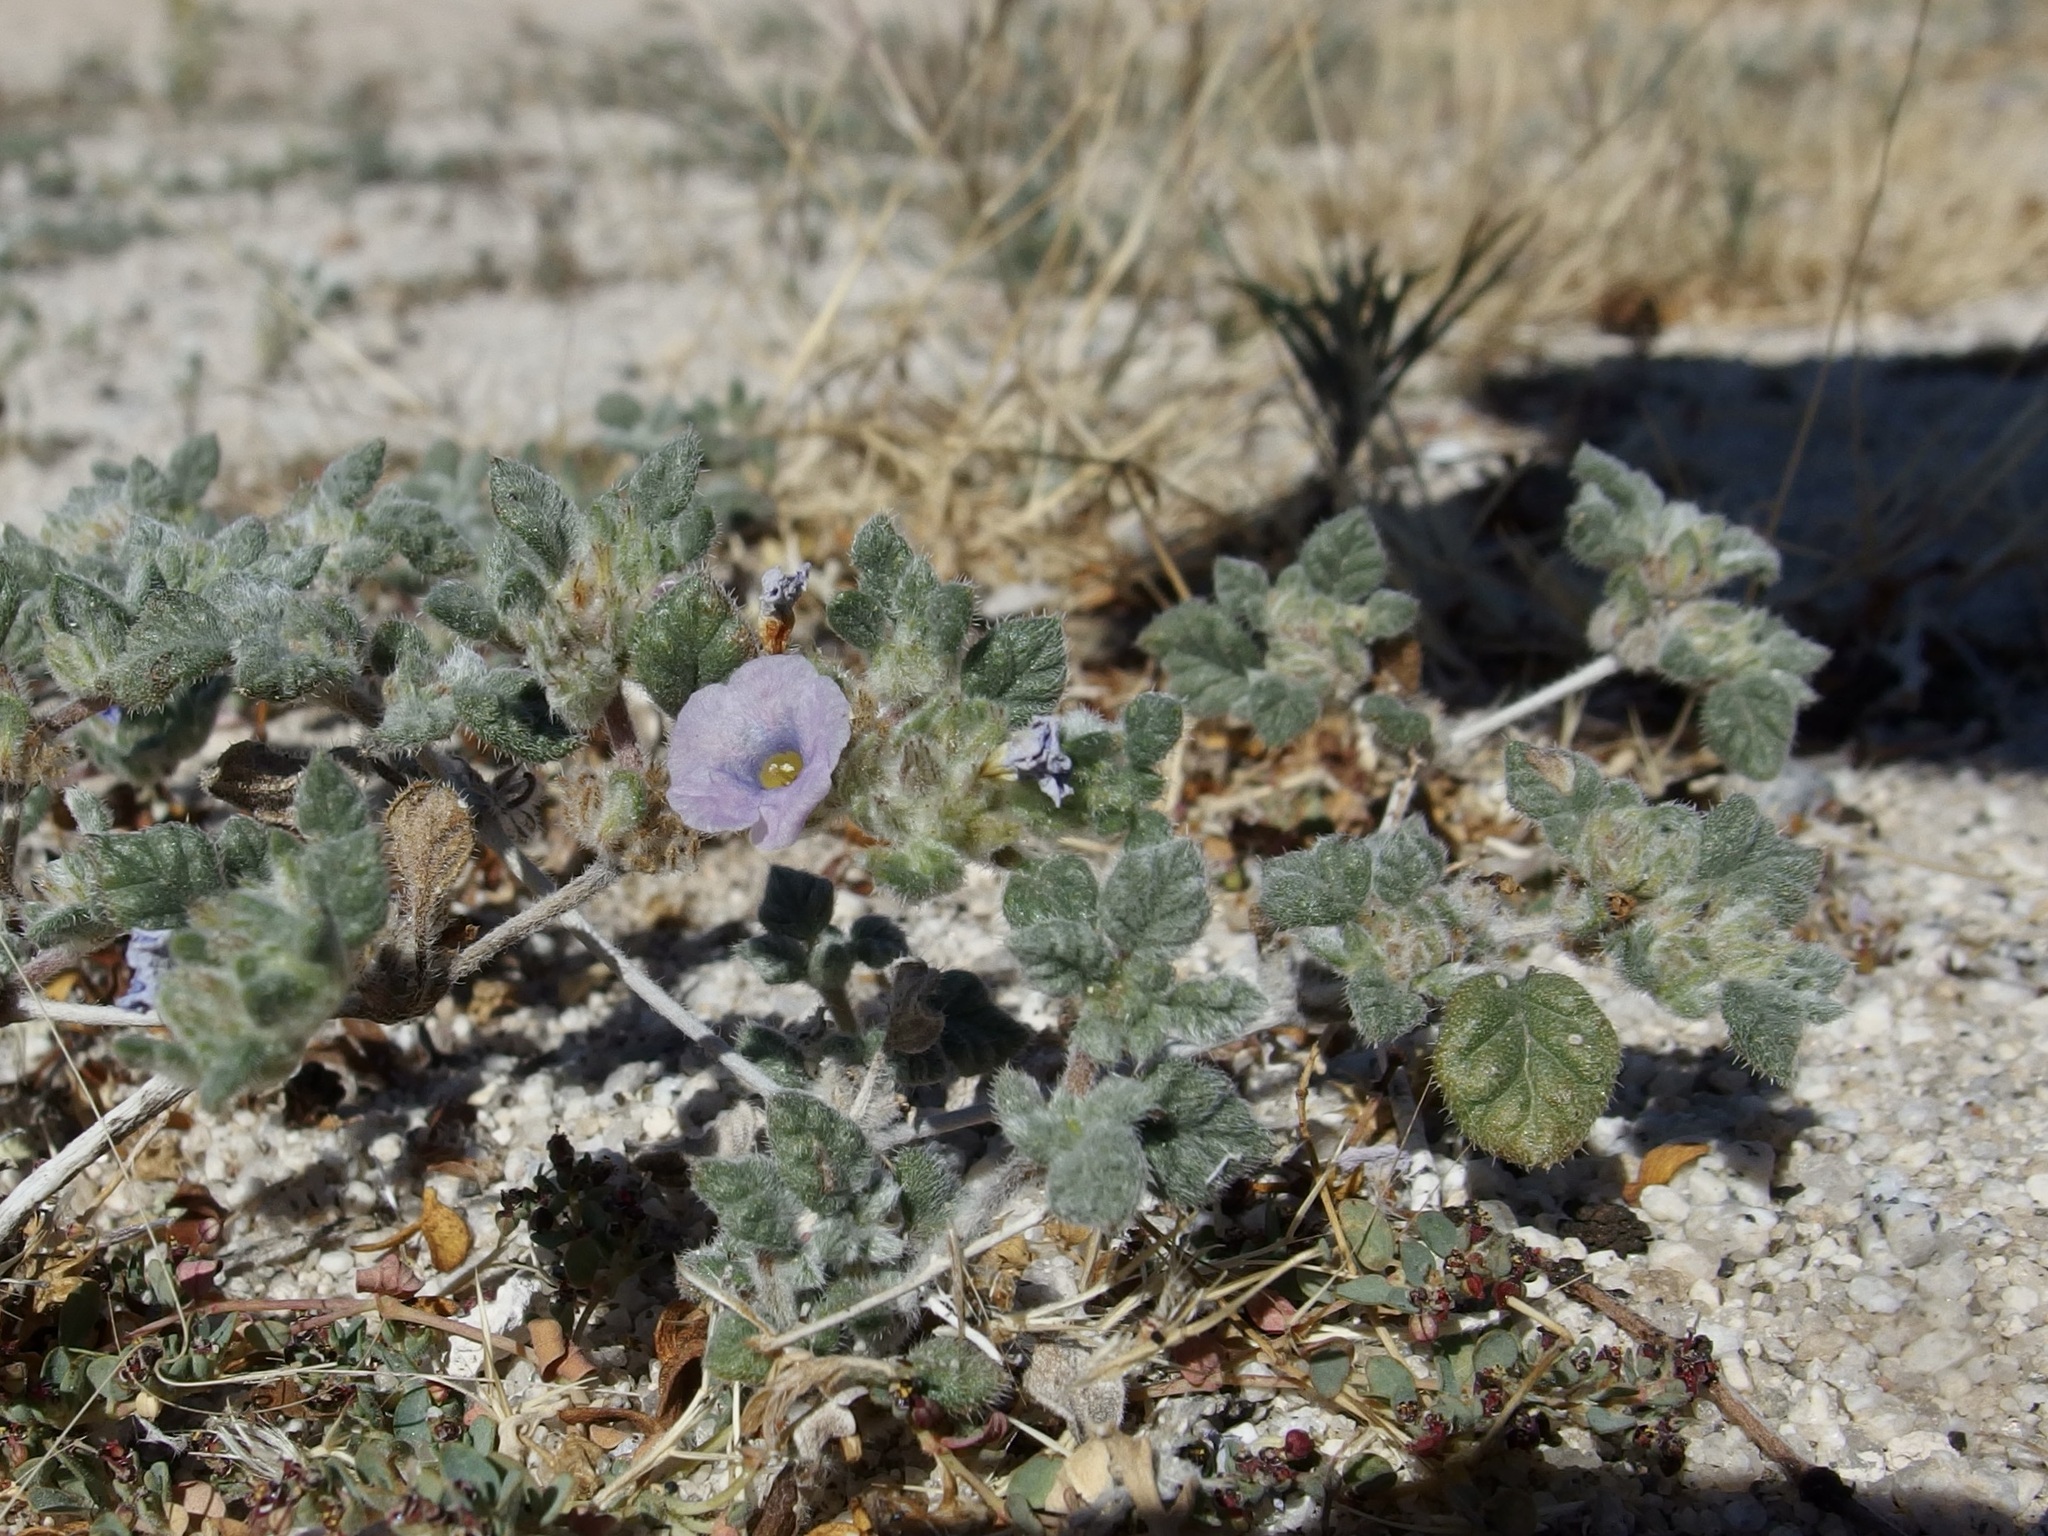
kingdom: Plantae
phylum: Tracheophyta
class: Magnoliopsida
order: Boraginales
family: Ehretiaceae
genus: Tiquilia
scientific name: Tiquilia palmeri
